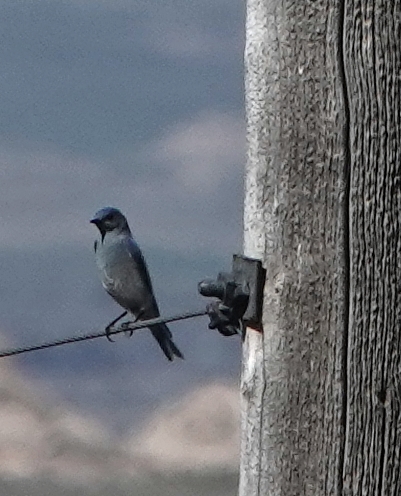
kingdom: Animalia
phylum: Chordata
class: Aves
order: Passeriformes
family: Turdidae
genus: Sialia
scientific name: Sialia currucoides
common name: Mountain bluebird
